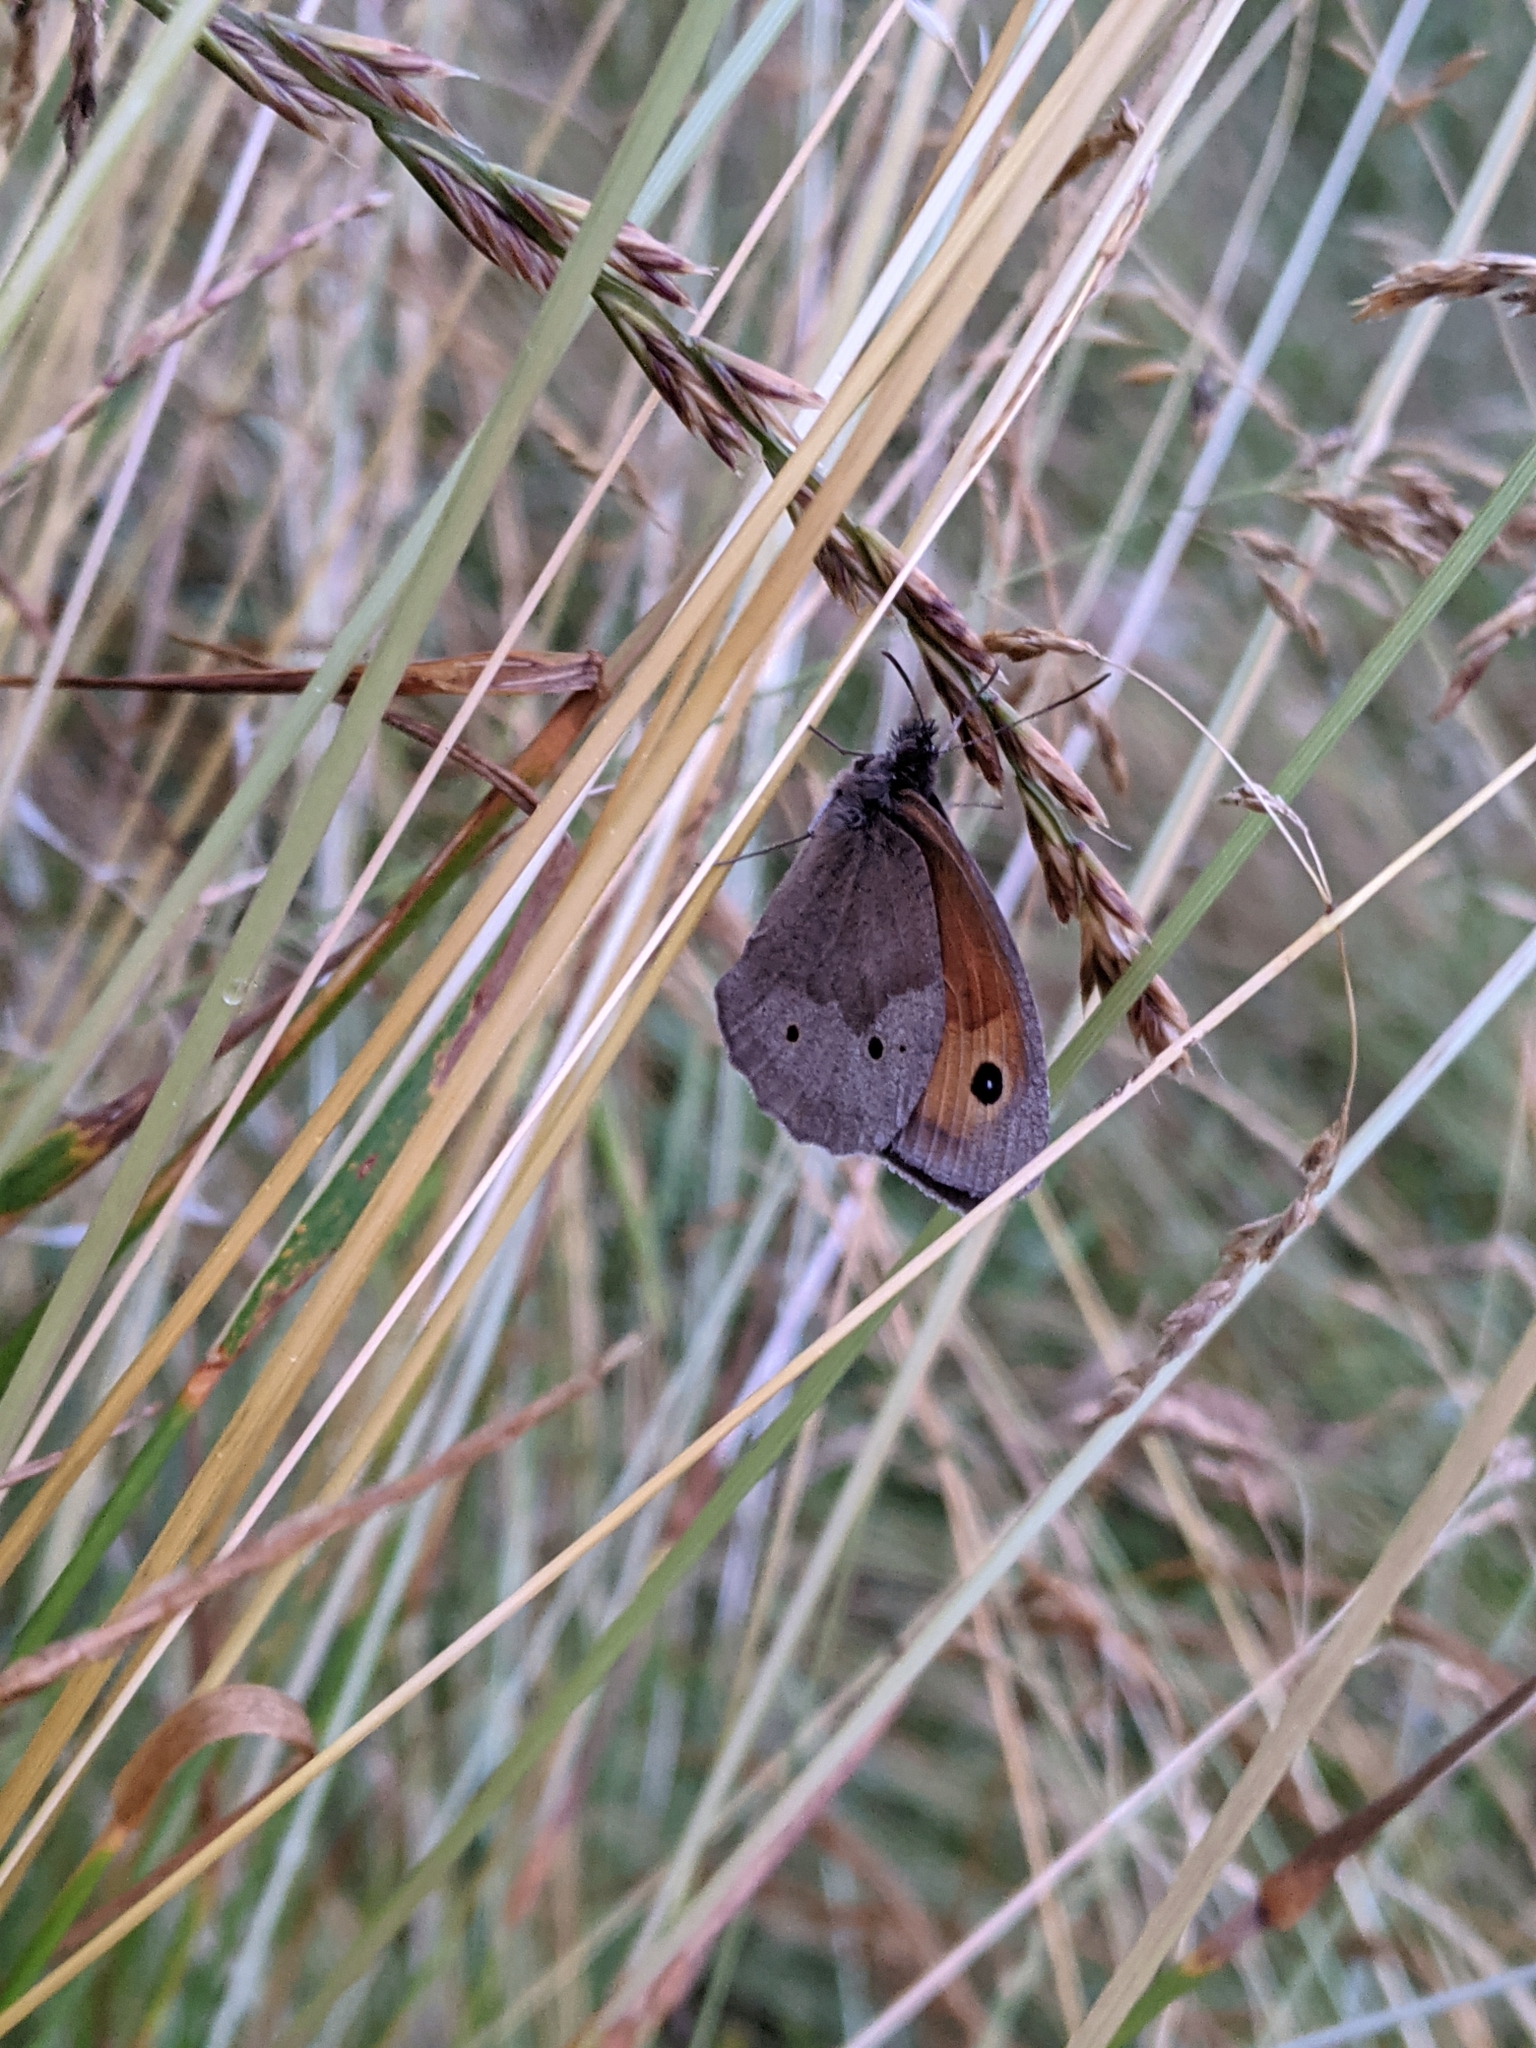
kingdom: Animalia
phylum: Arthropoda
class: Insecta
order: Lepidoptera
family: Nymphalidae
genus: Maniola
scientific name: Maniola jurtina
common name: Meadow brown
